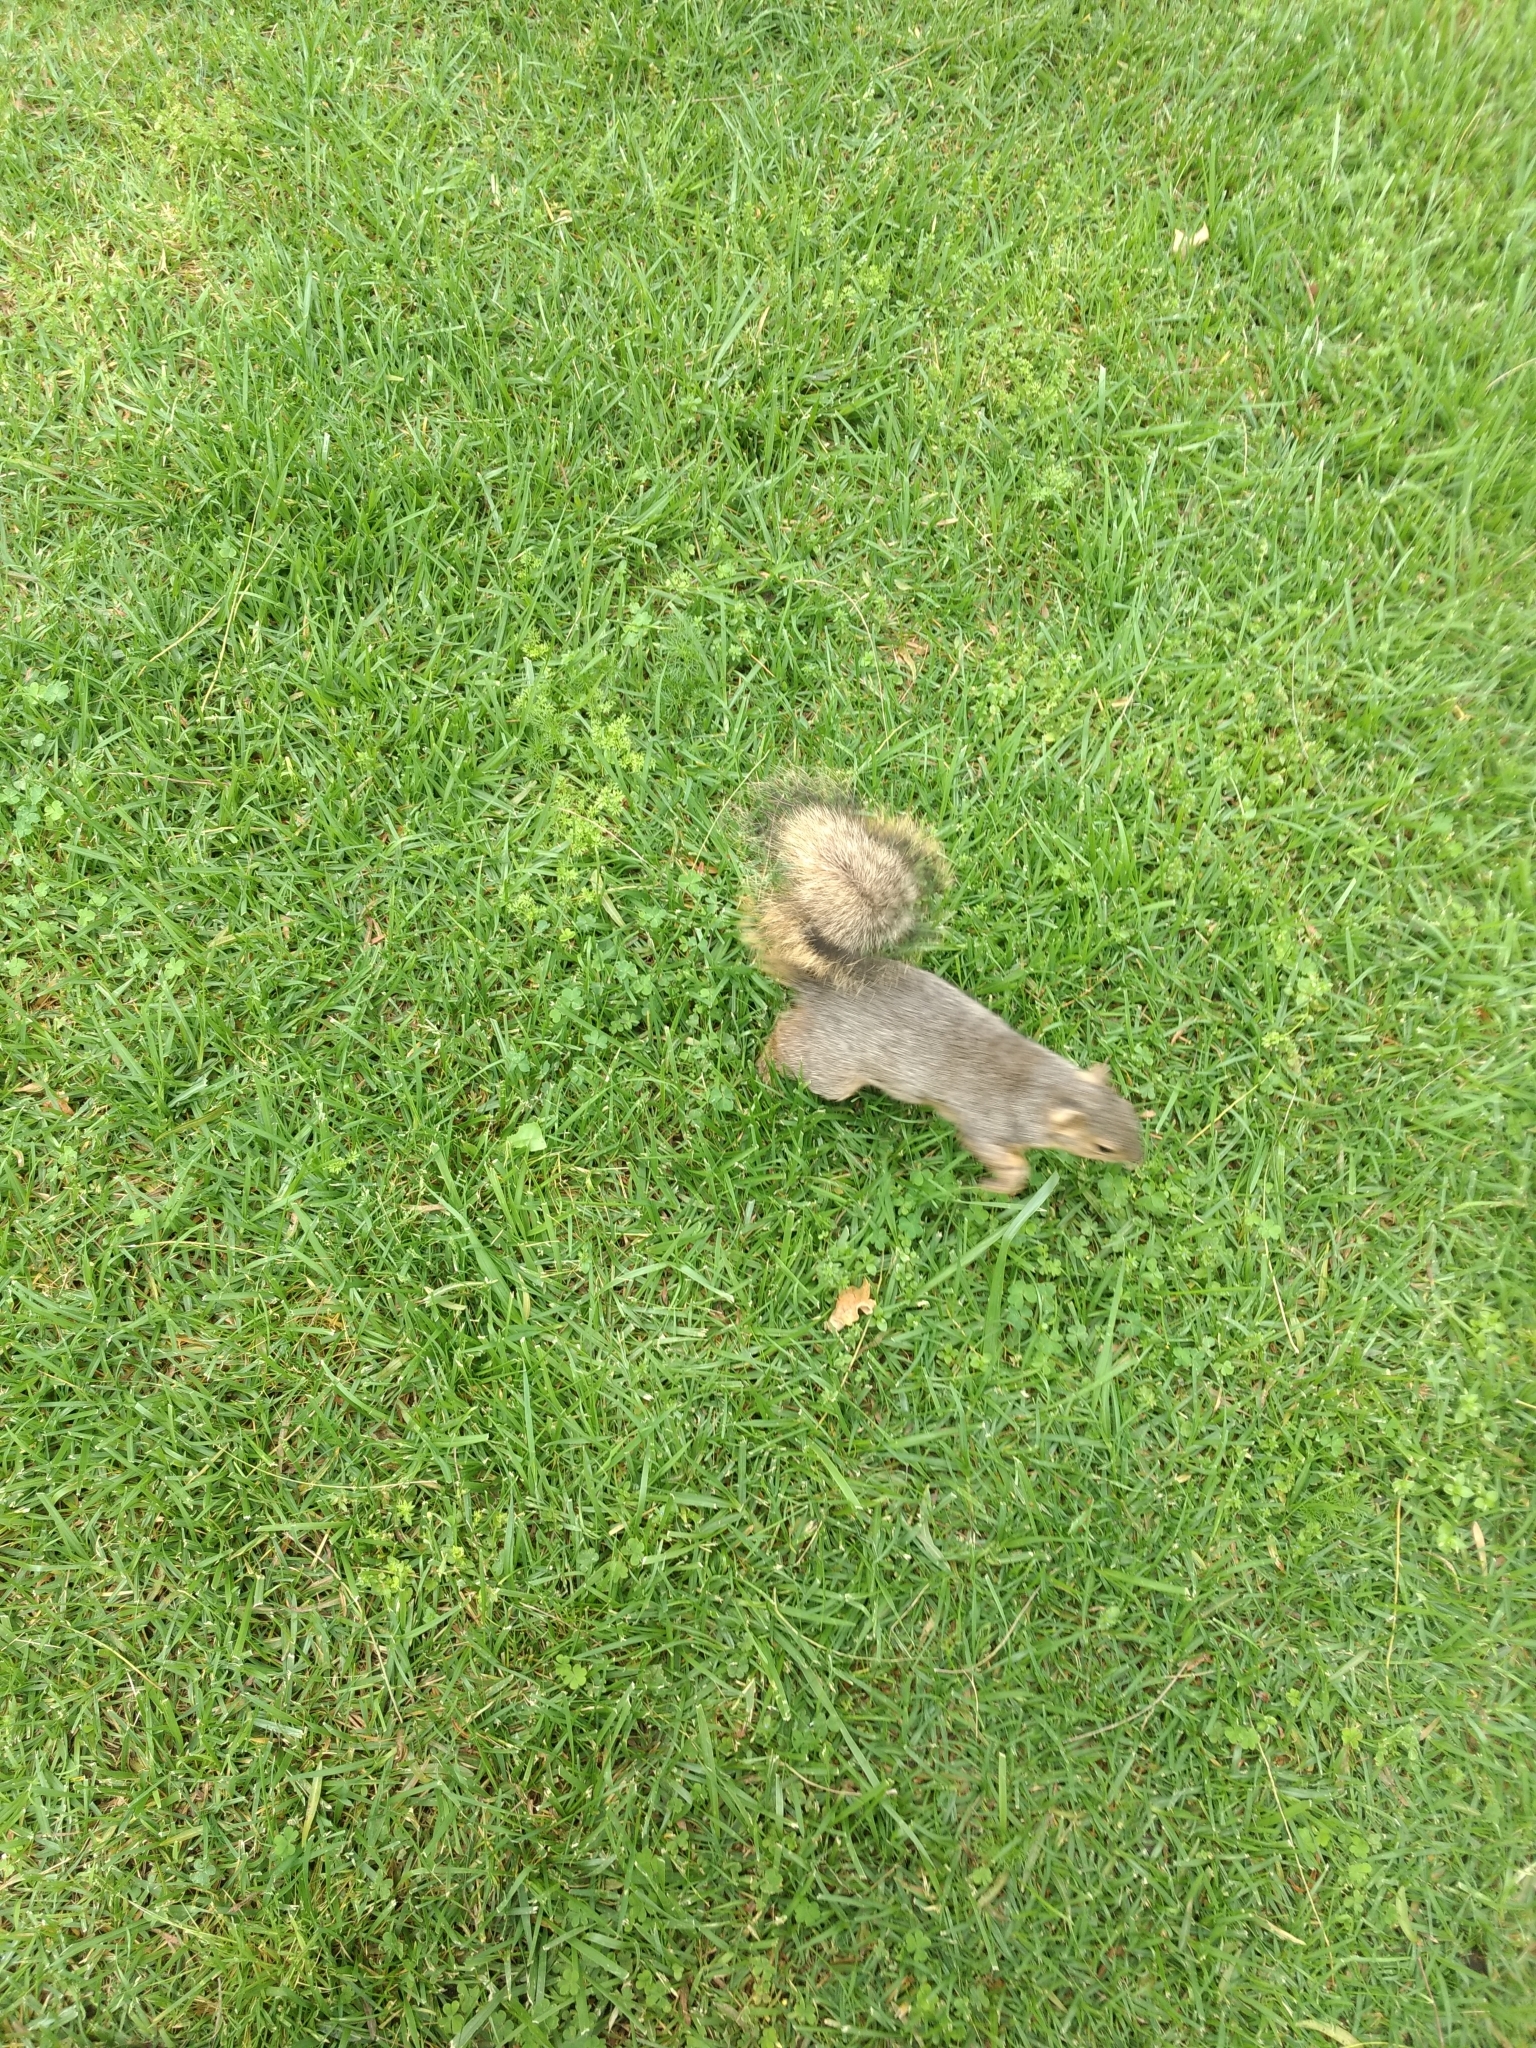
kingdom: Animalia
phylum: Chordata
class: Mammalia
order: Rodentia
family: Sciuridae
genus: Sciurus
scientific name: Sciurus niger
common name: Fox squirrel
